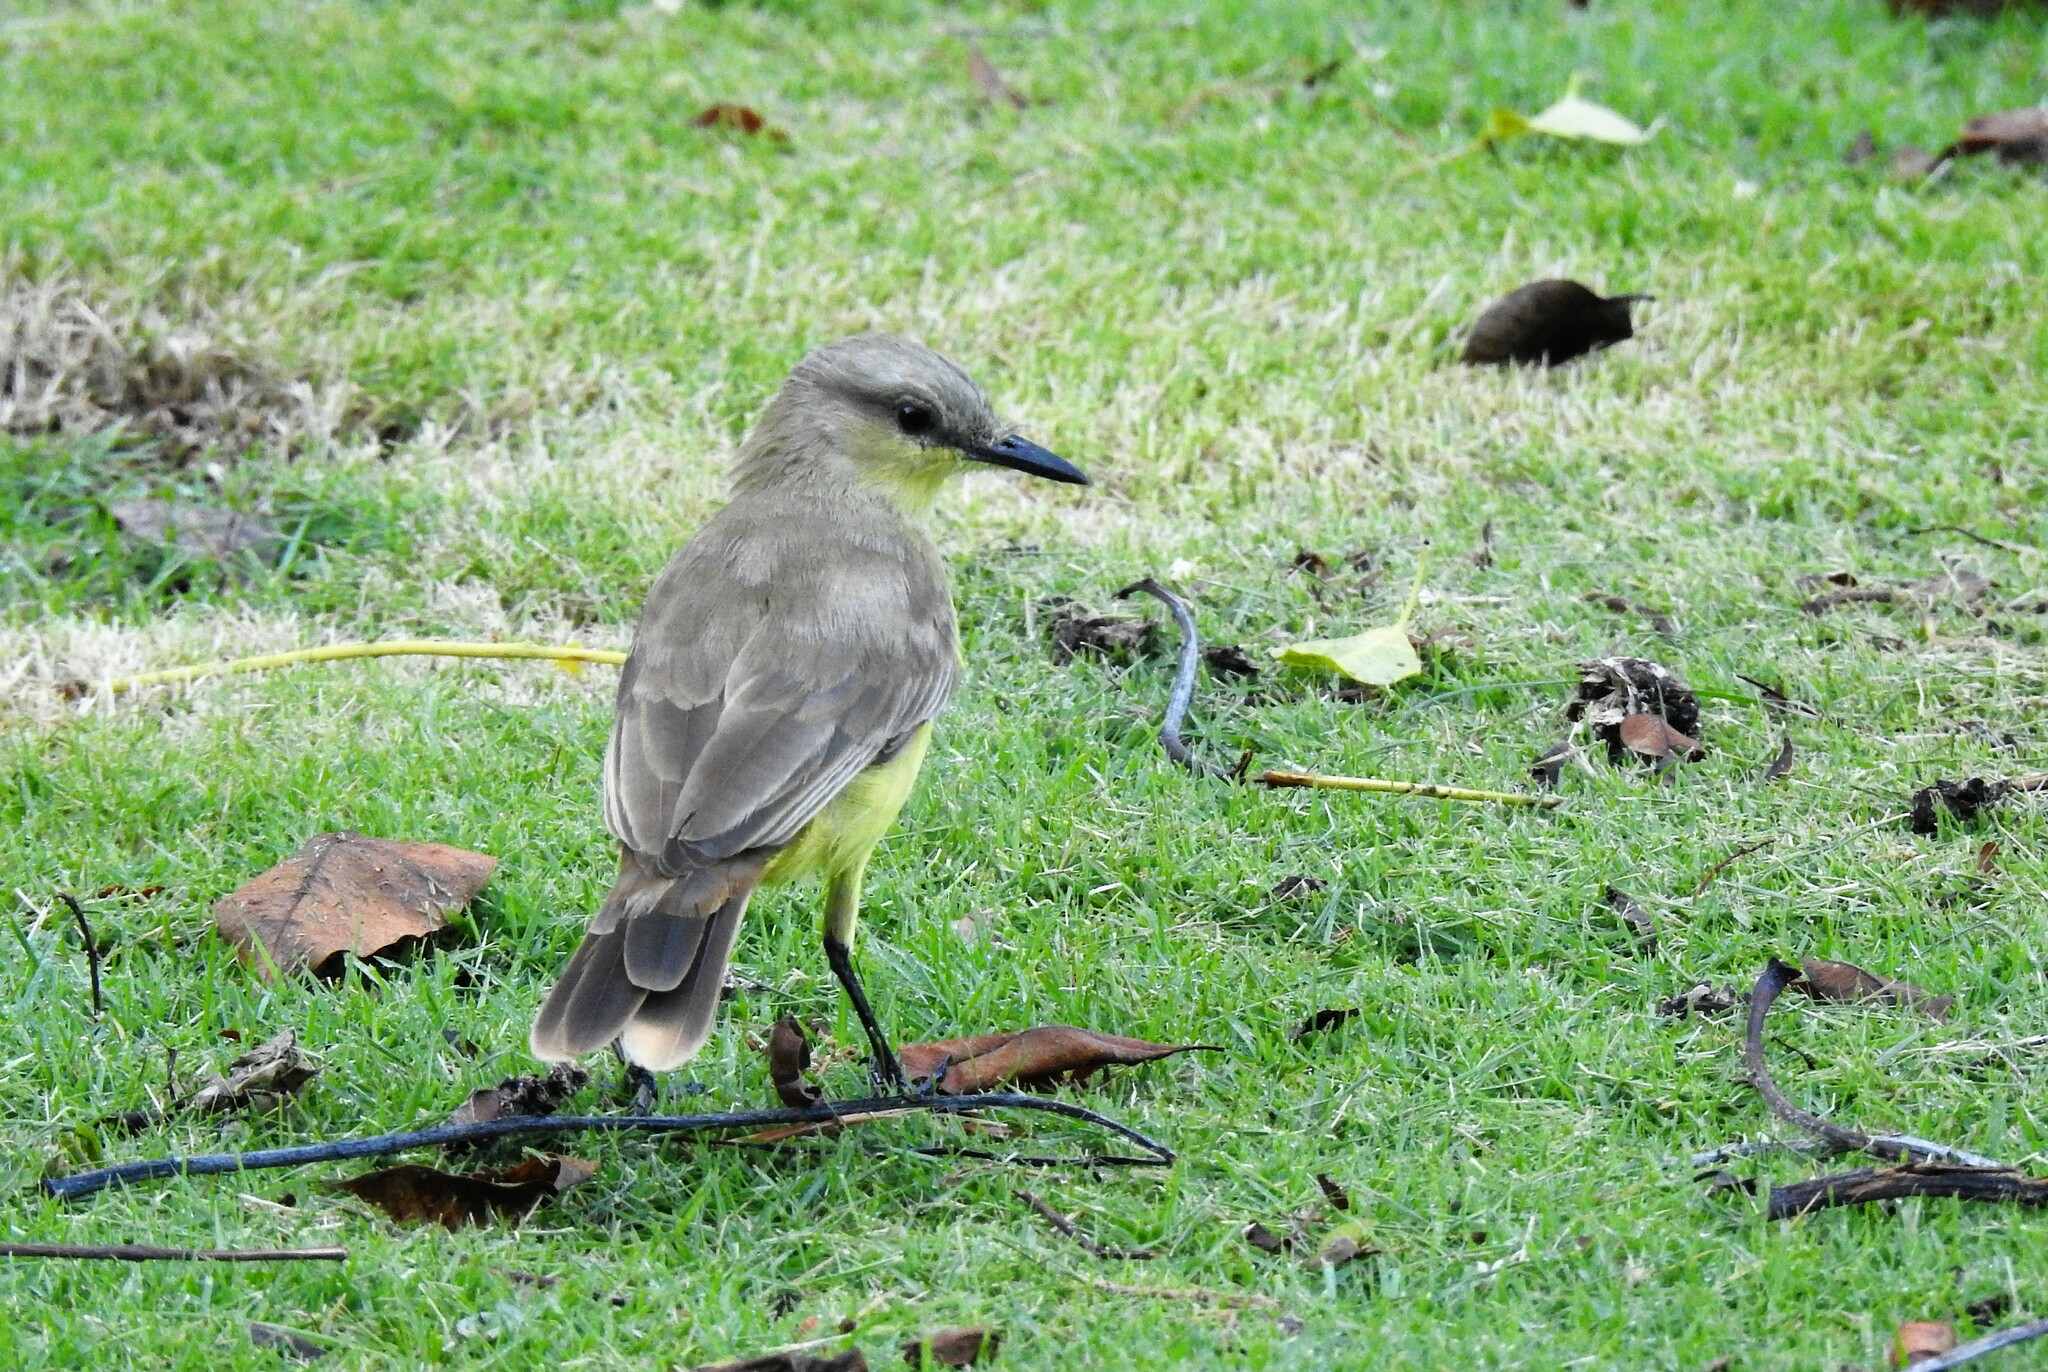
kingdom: Animalia
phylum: Chordata
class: Aves
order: Passeriformes
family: Tyrannidae
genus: Machetornis
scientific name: Machetornis rixosa
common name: Cattle tyrant
